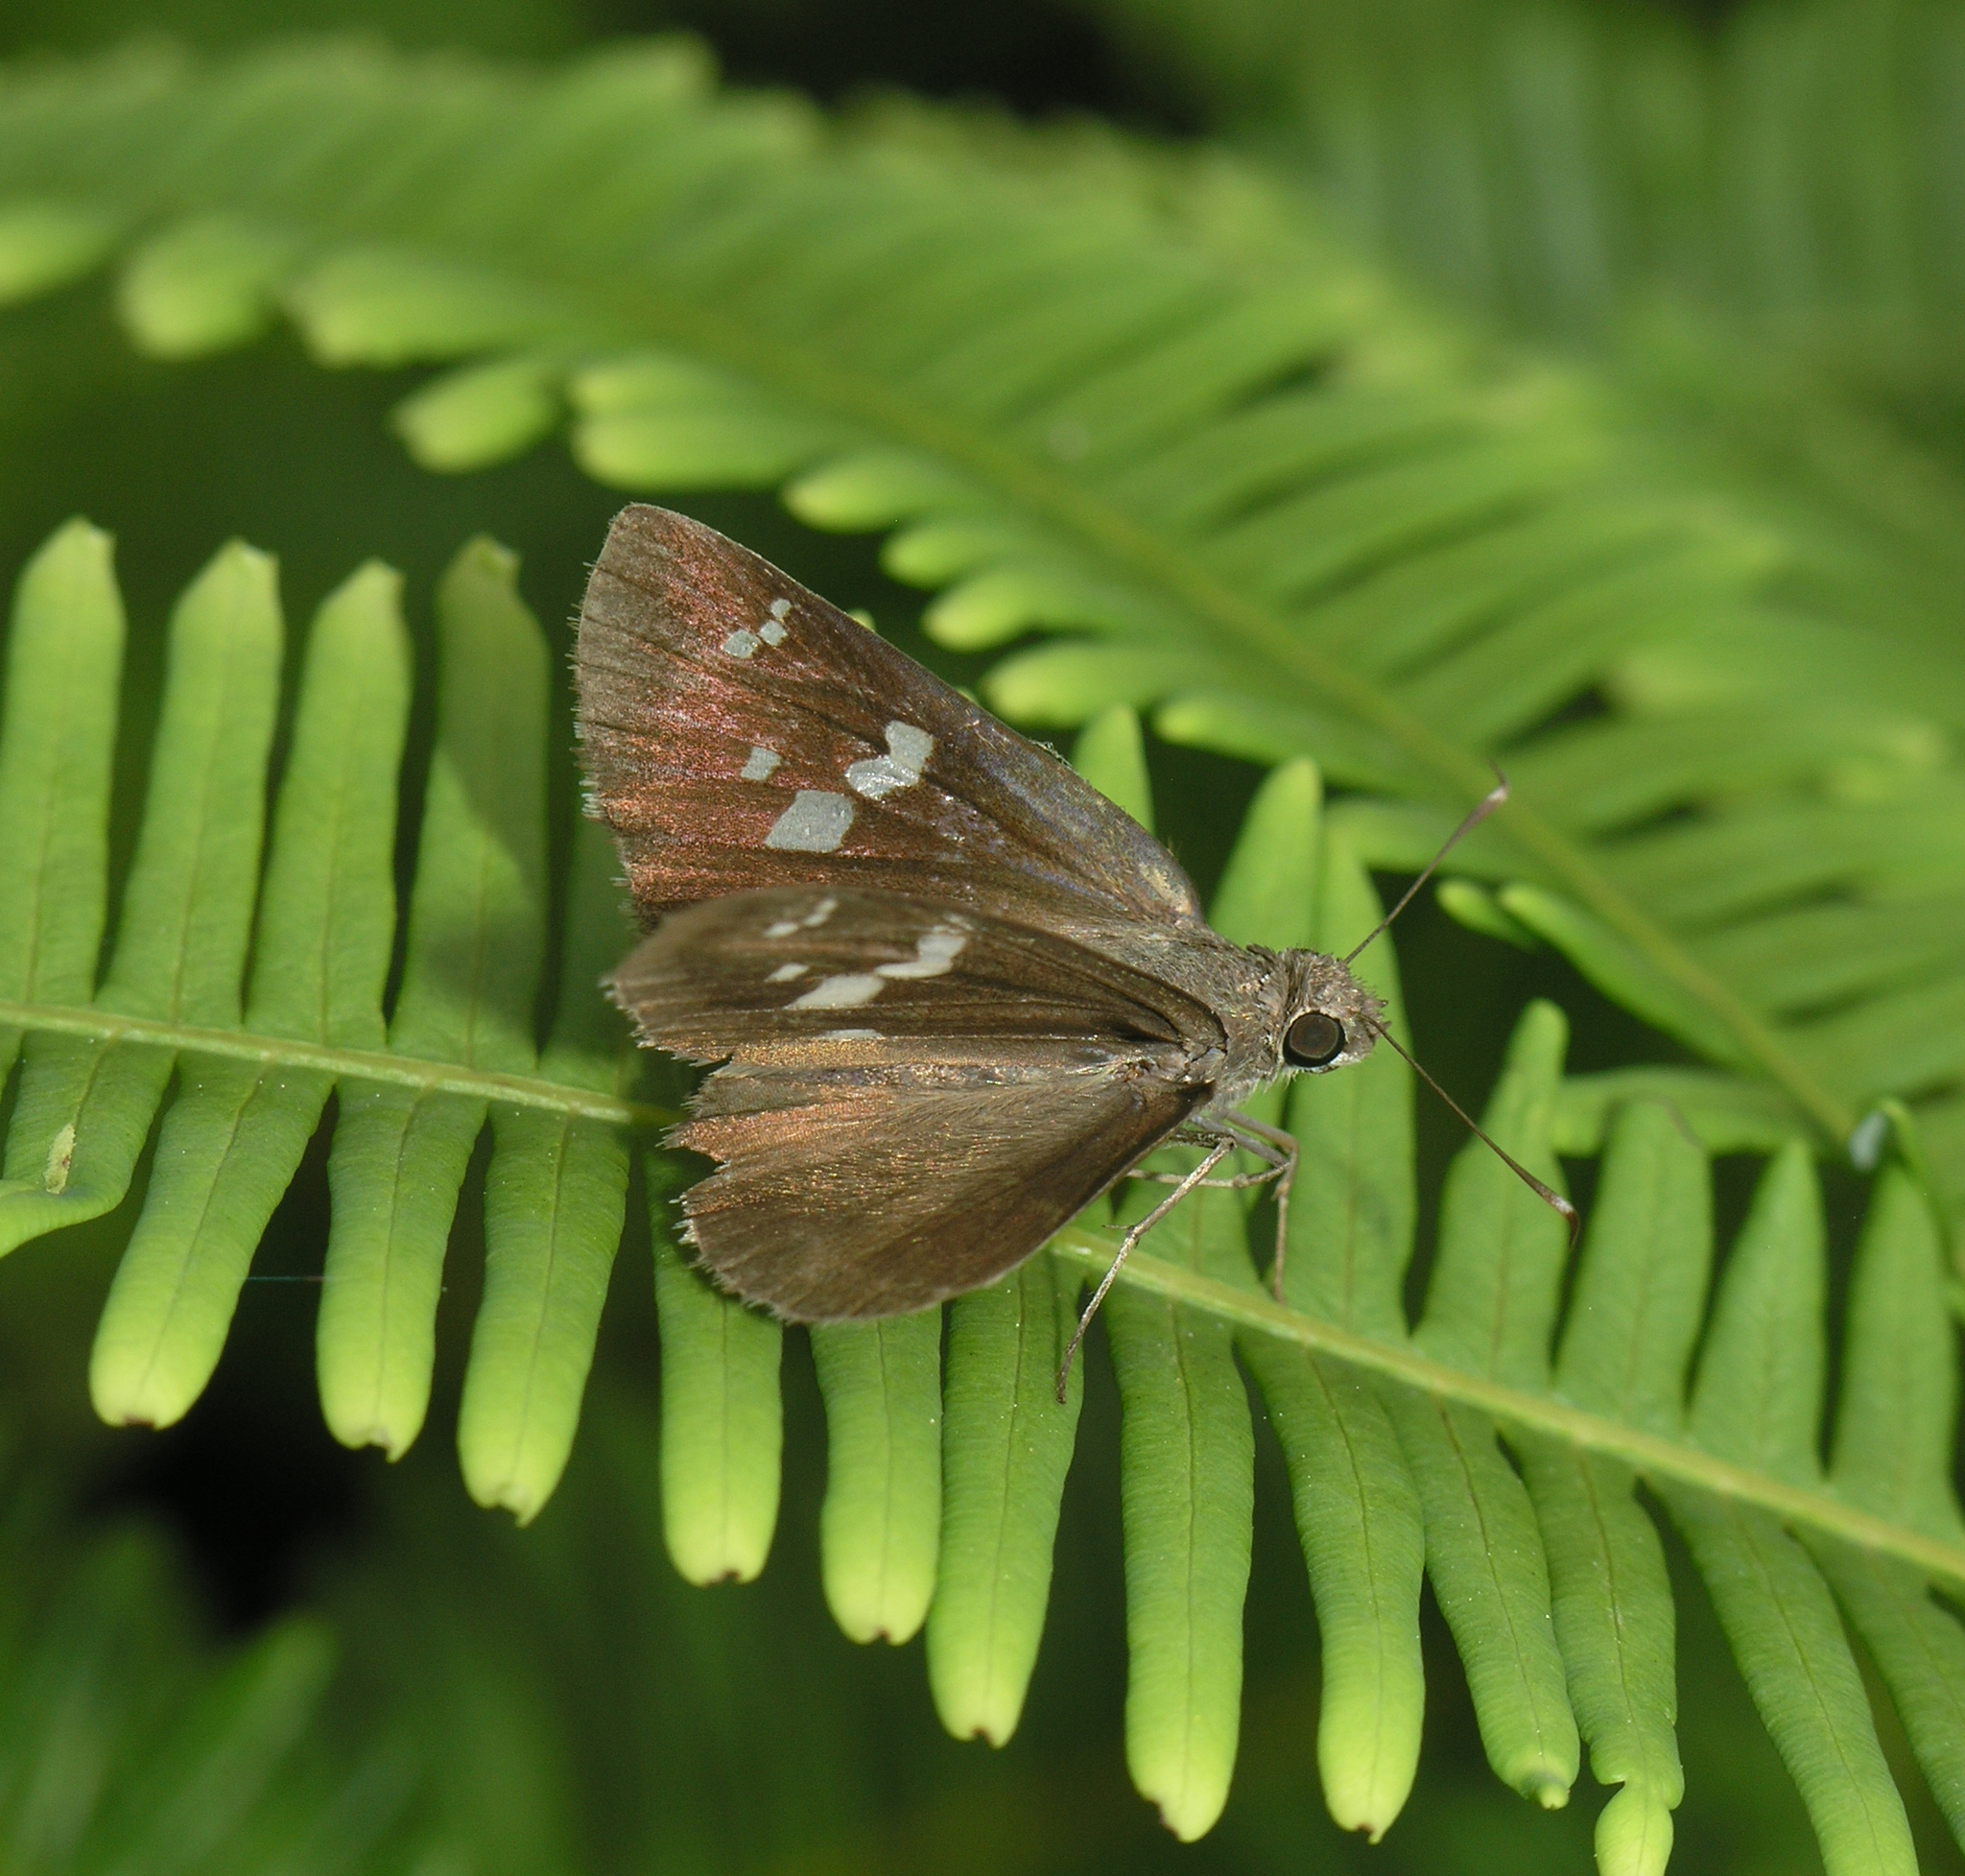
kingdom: Animalia
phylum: Arthropoda
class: Insecta
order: Lepidoptera
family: Hesperiidae
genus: Hyarotis
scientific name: Hyarotis adrastus
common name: Tree flitter
